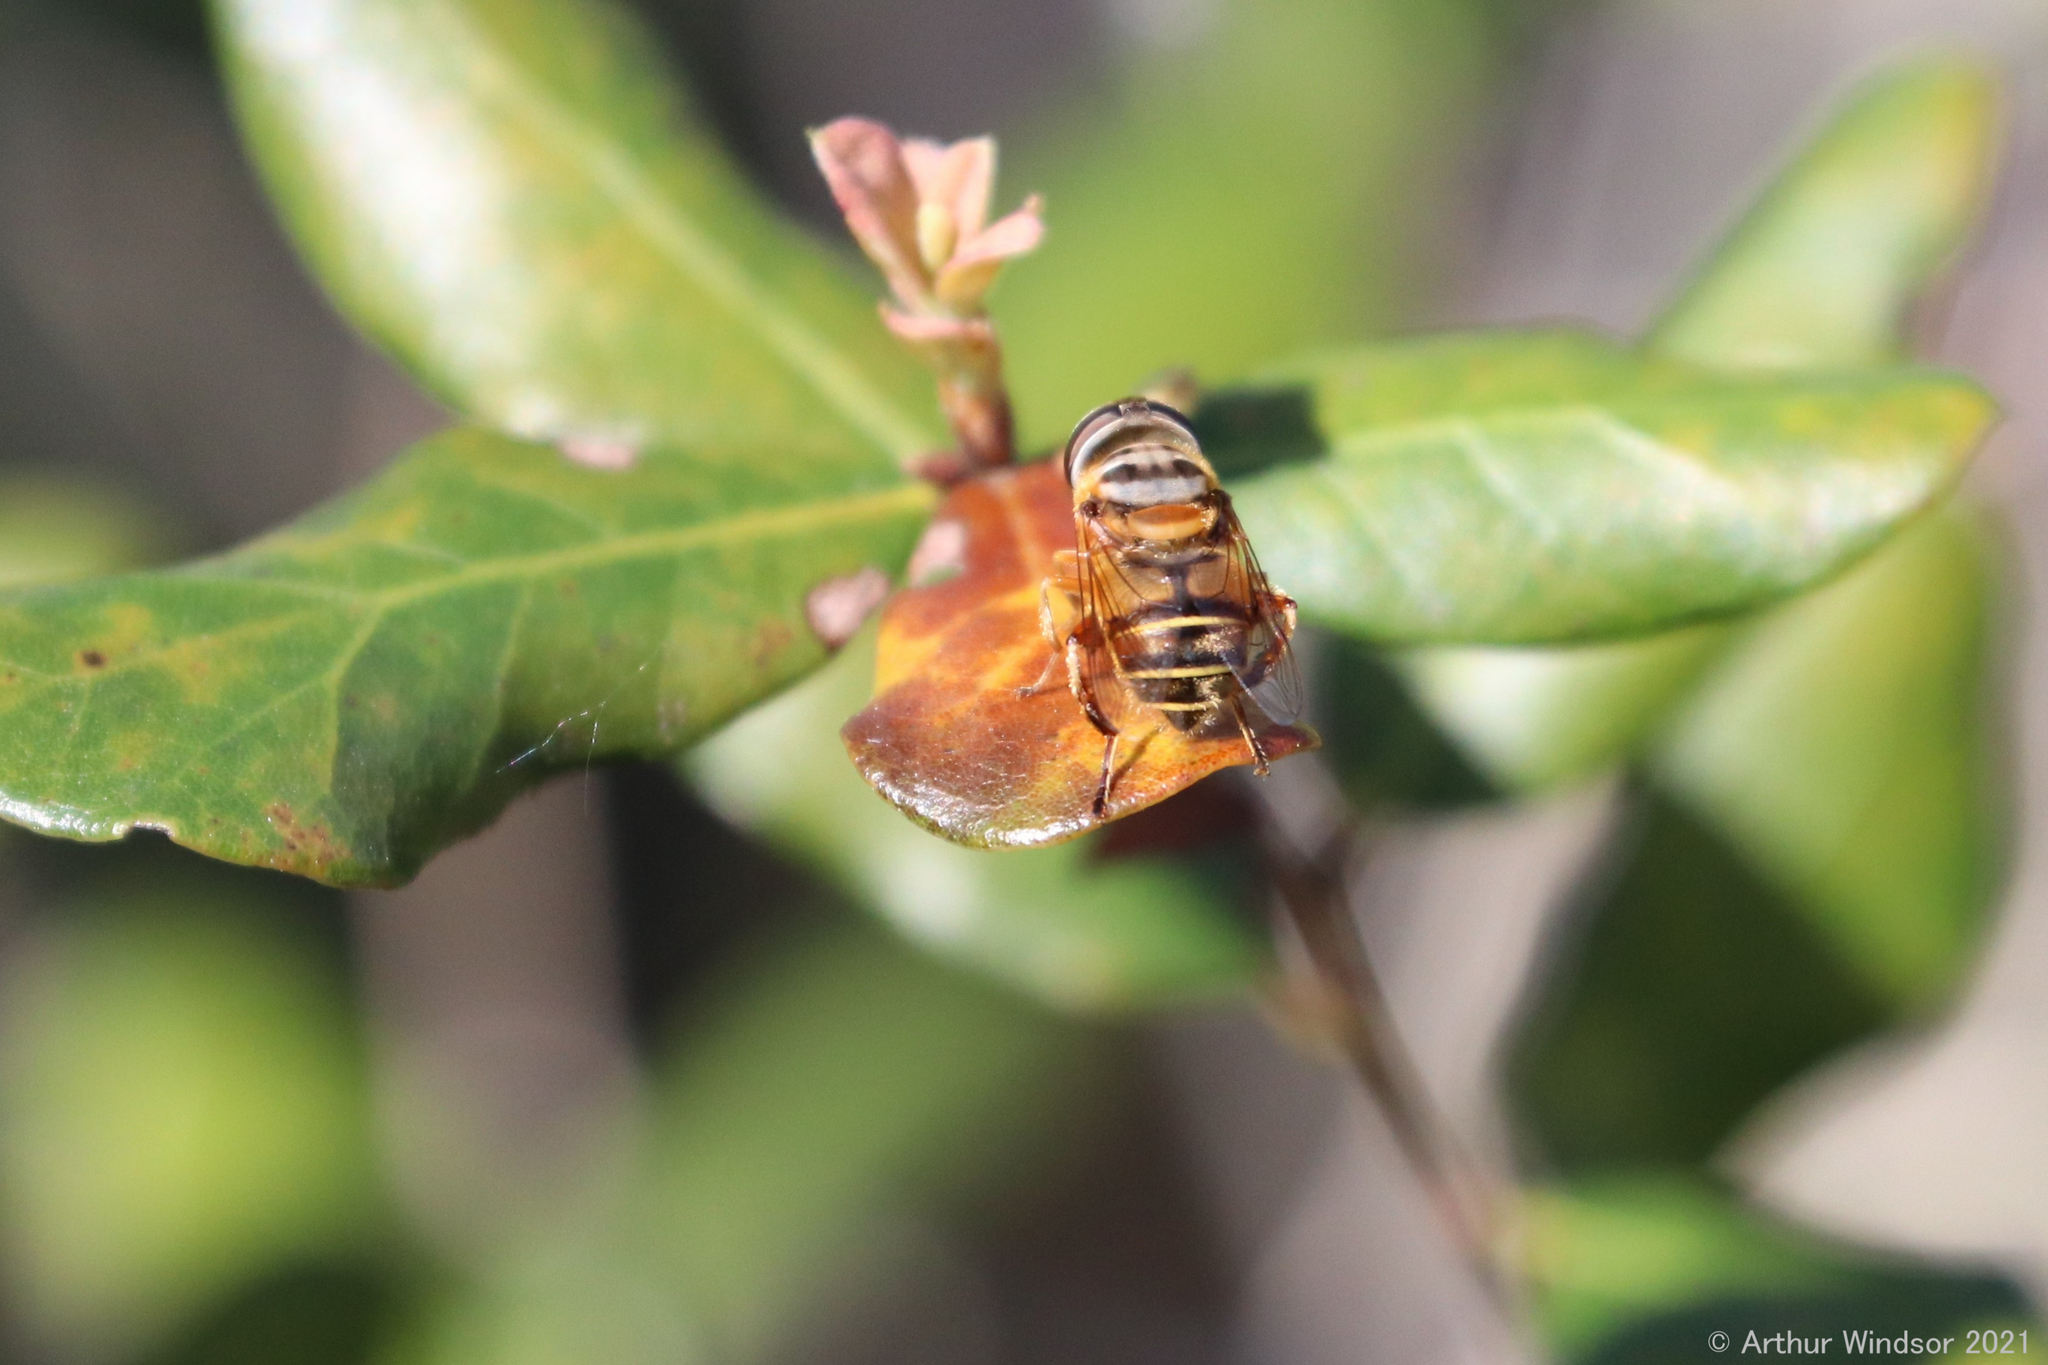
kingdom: Animalia
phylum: Arthropoda
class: Insecta
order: Diptera
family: Syrphidae
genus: Palpada
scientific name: Palpada vinetorum
